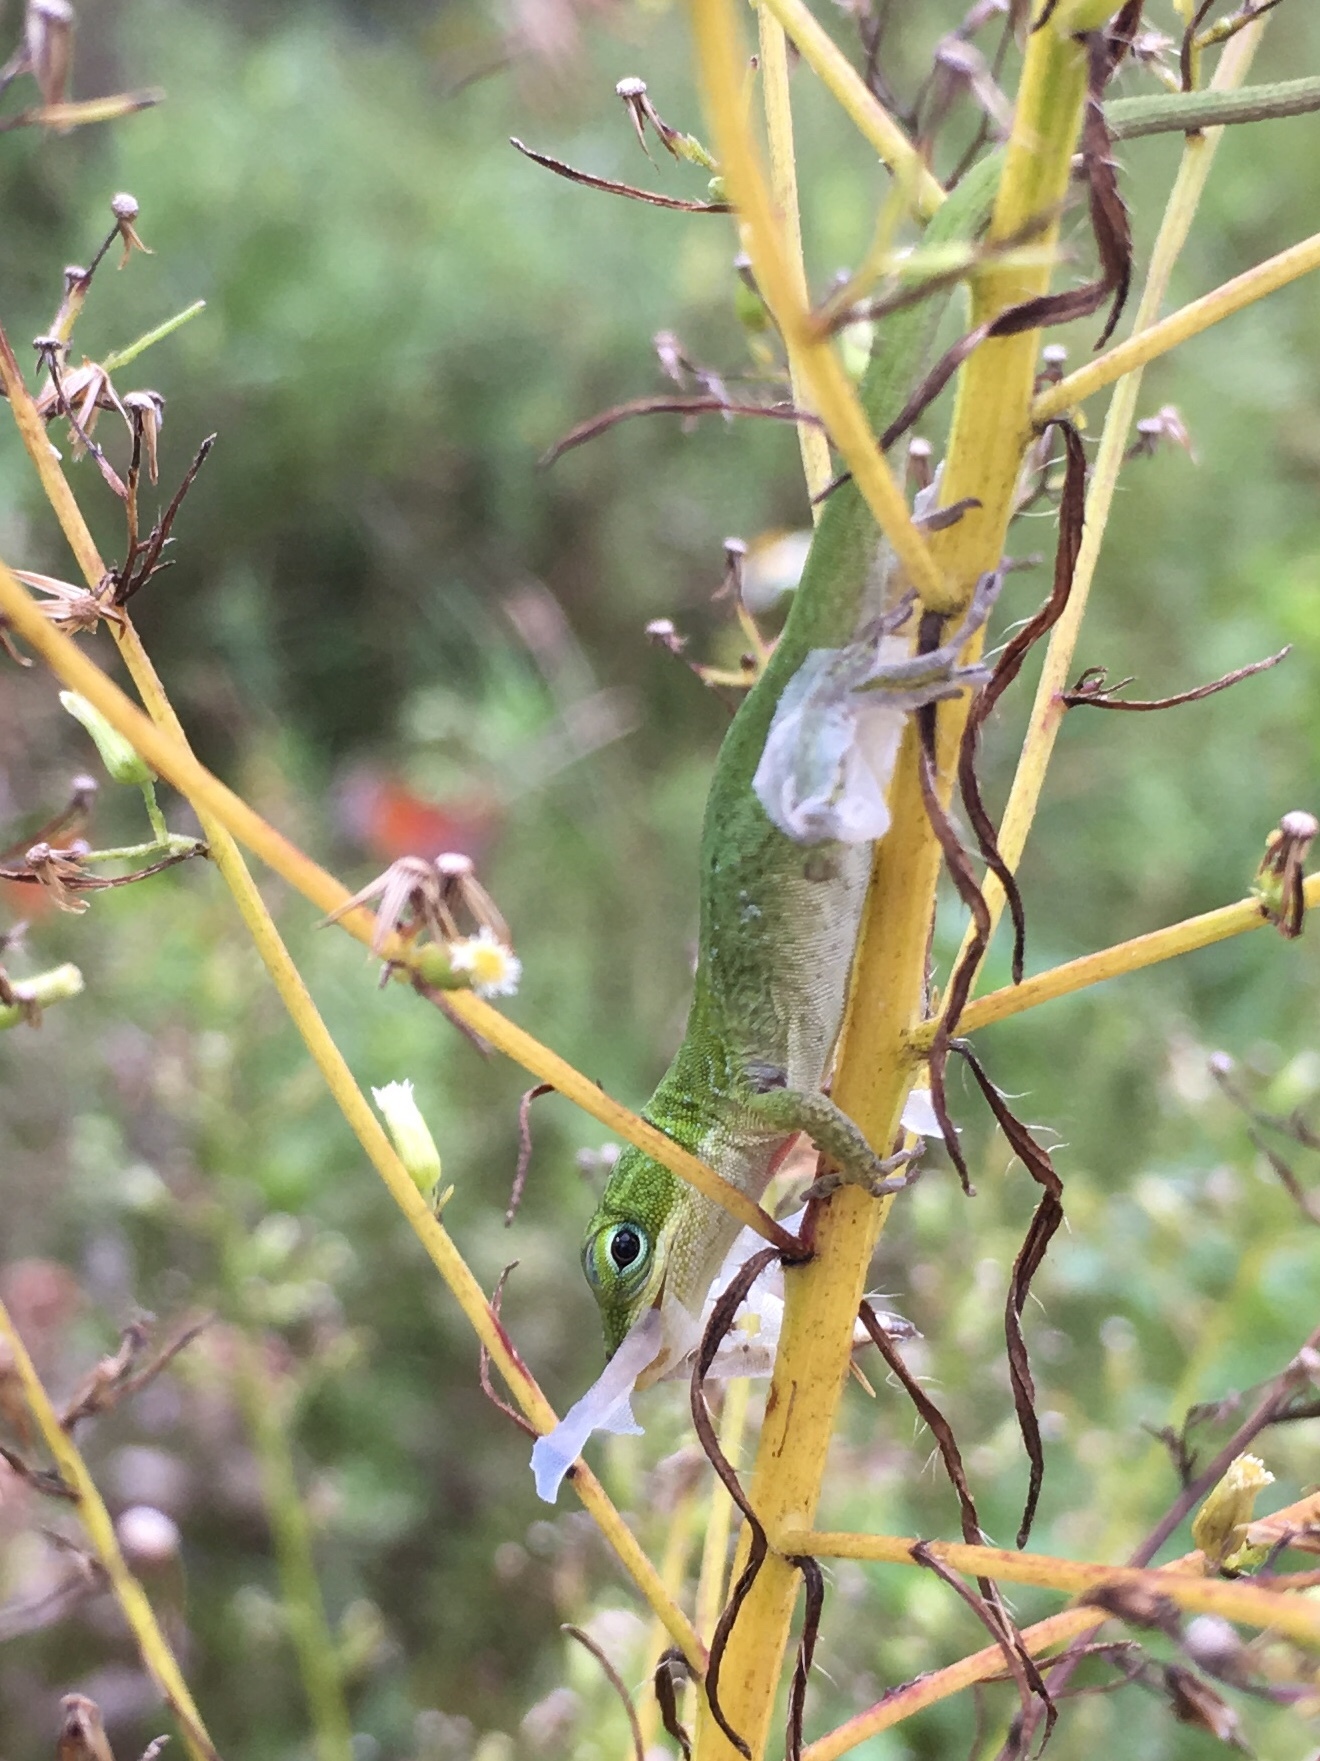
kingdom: Animalia
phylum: Chordata
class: Squamata
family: Dactyloidae
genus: Anolis
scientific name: Anolis carolinensis
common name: Green anole
